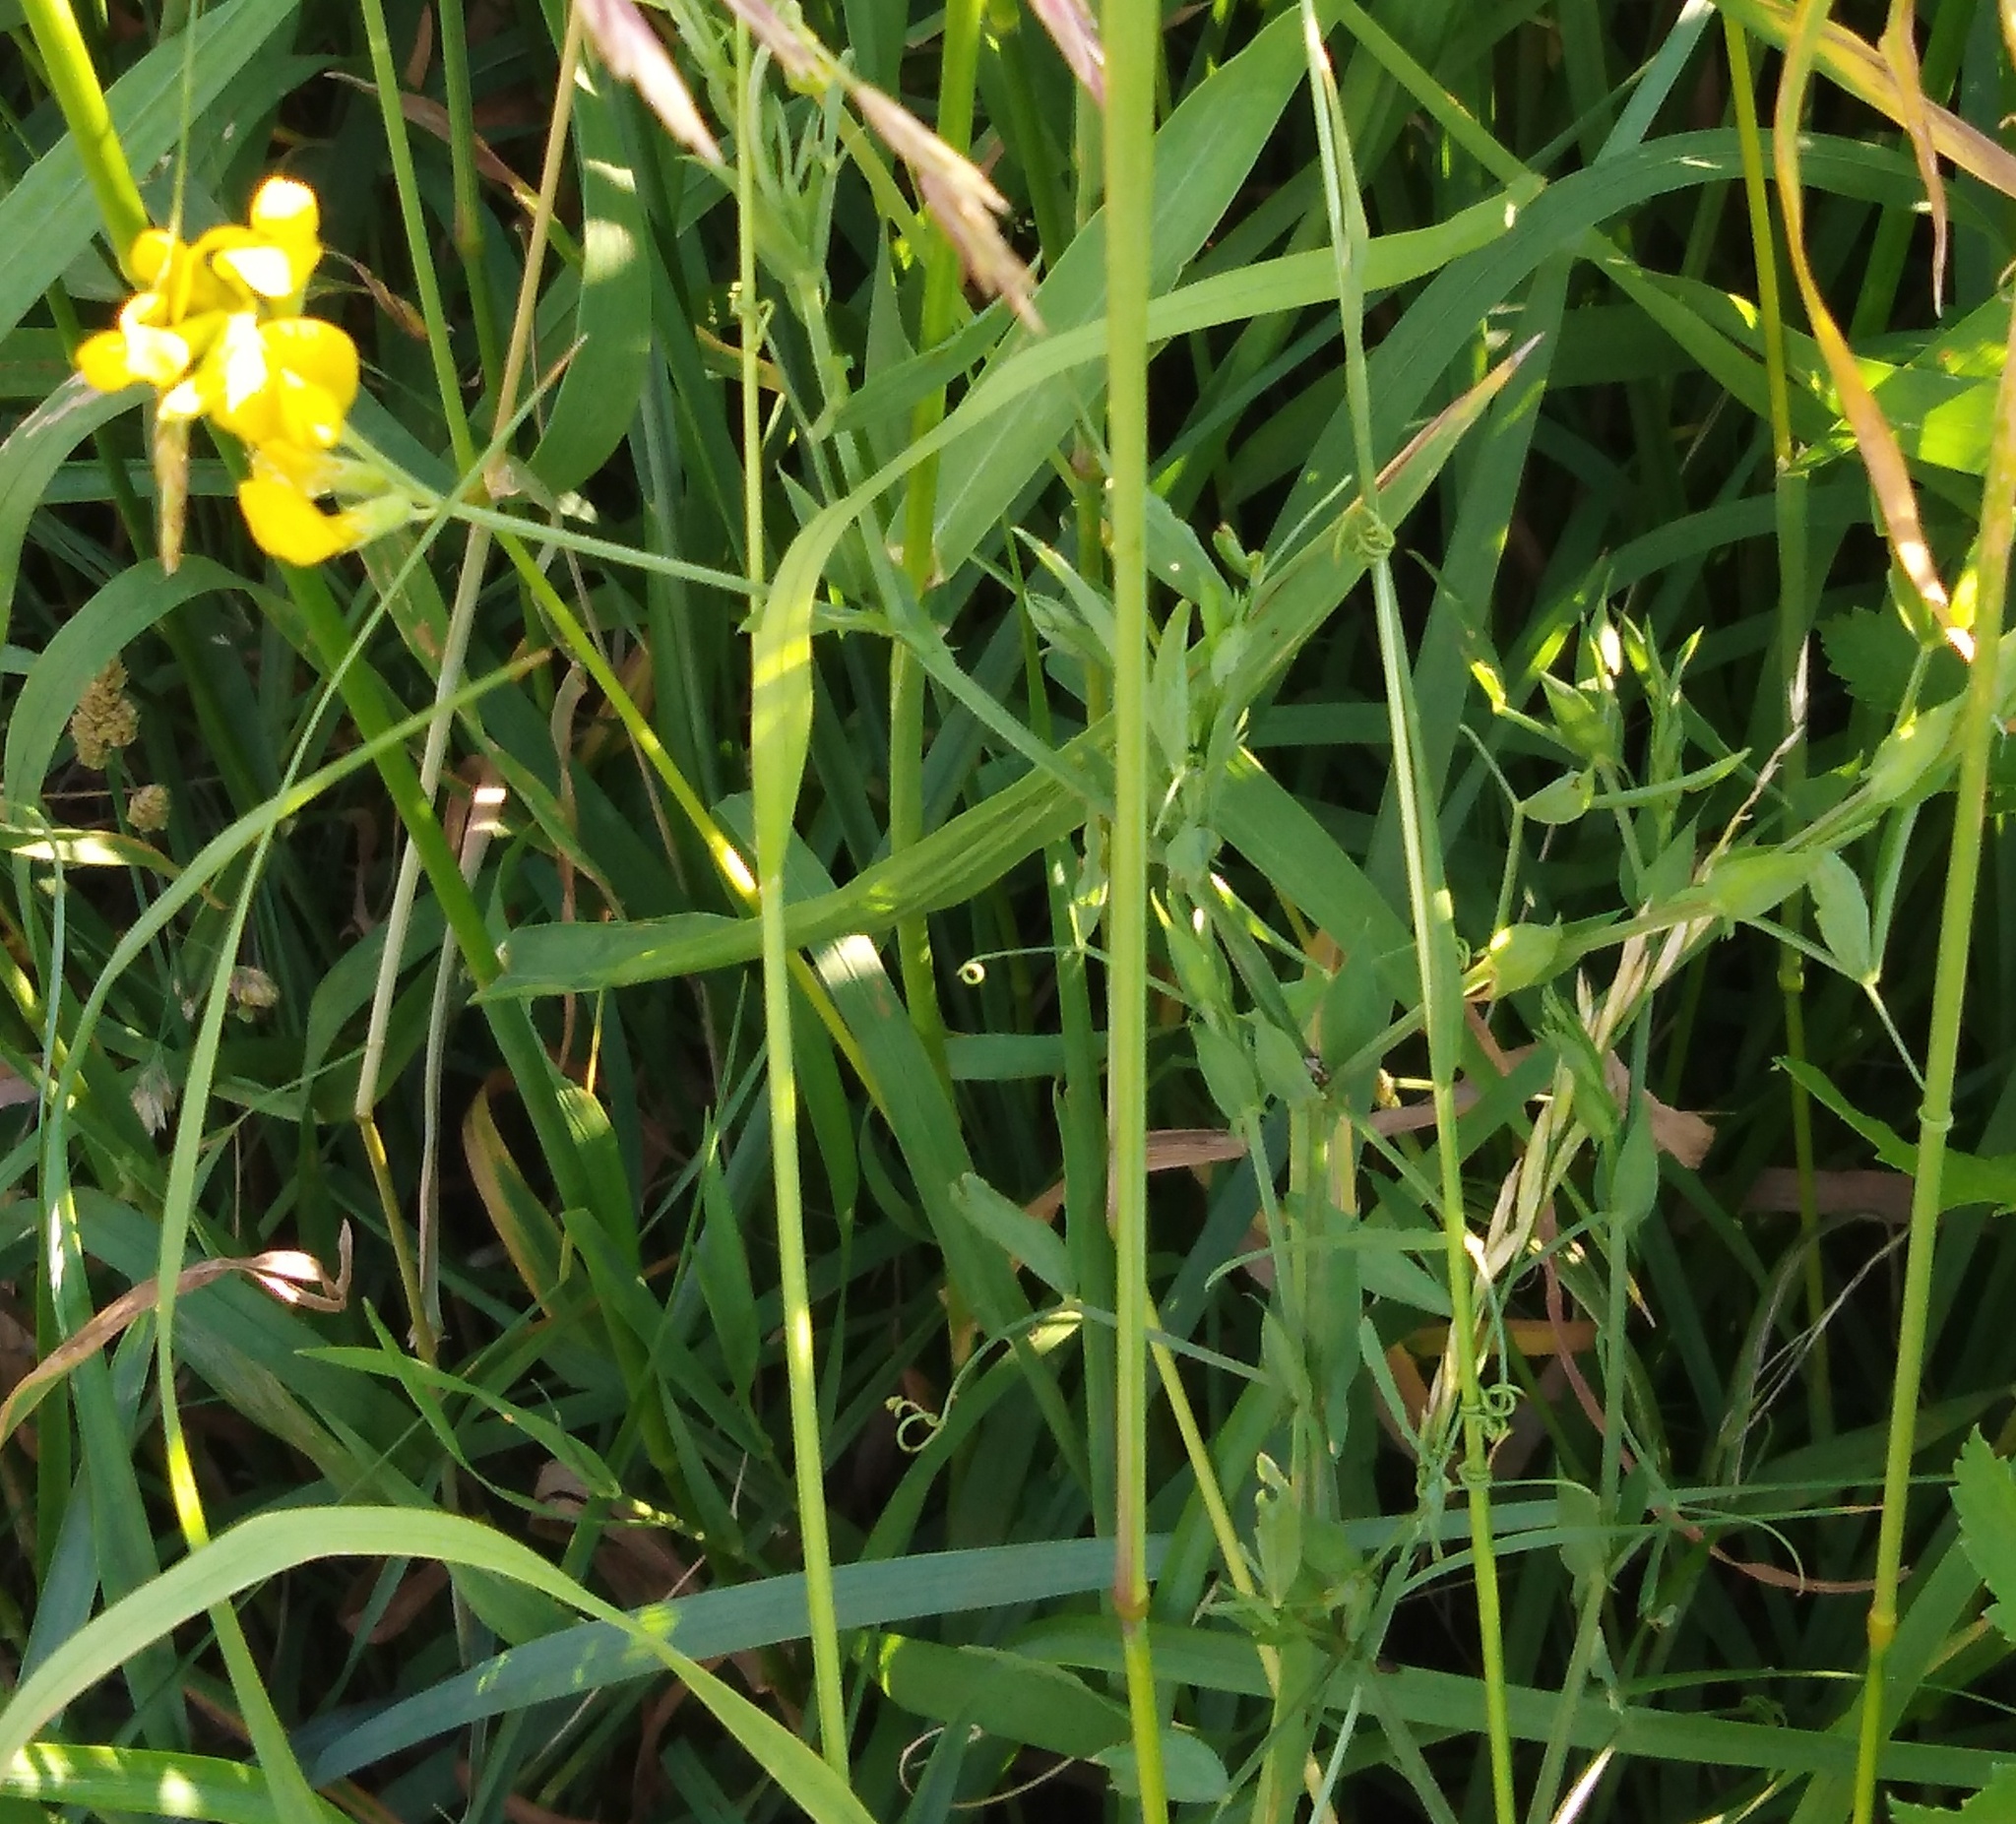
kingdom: Plantae
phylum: Tracheophyta
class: Magnoliopsida
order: Fabales
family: Fabaceae
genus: Lathyrus
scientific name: Lathyrus pratensis
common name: Meadow vetchling
